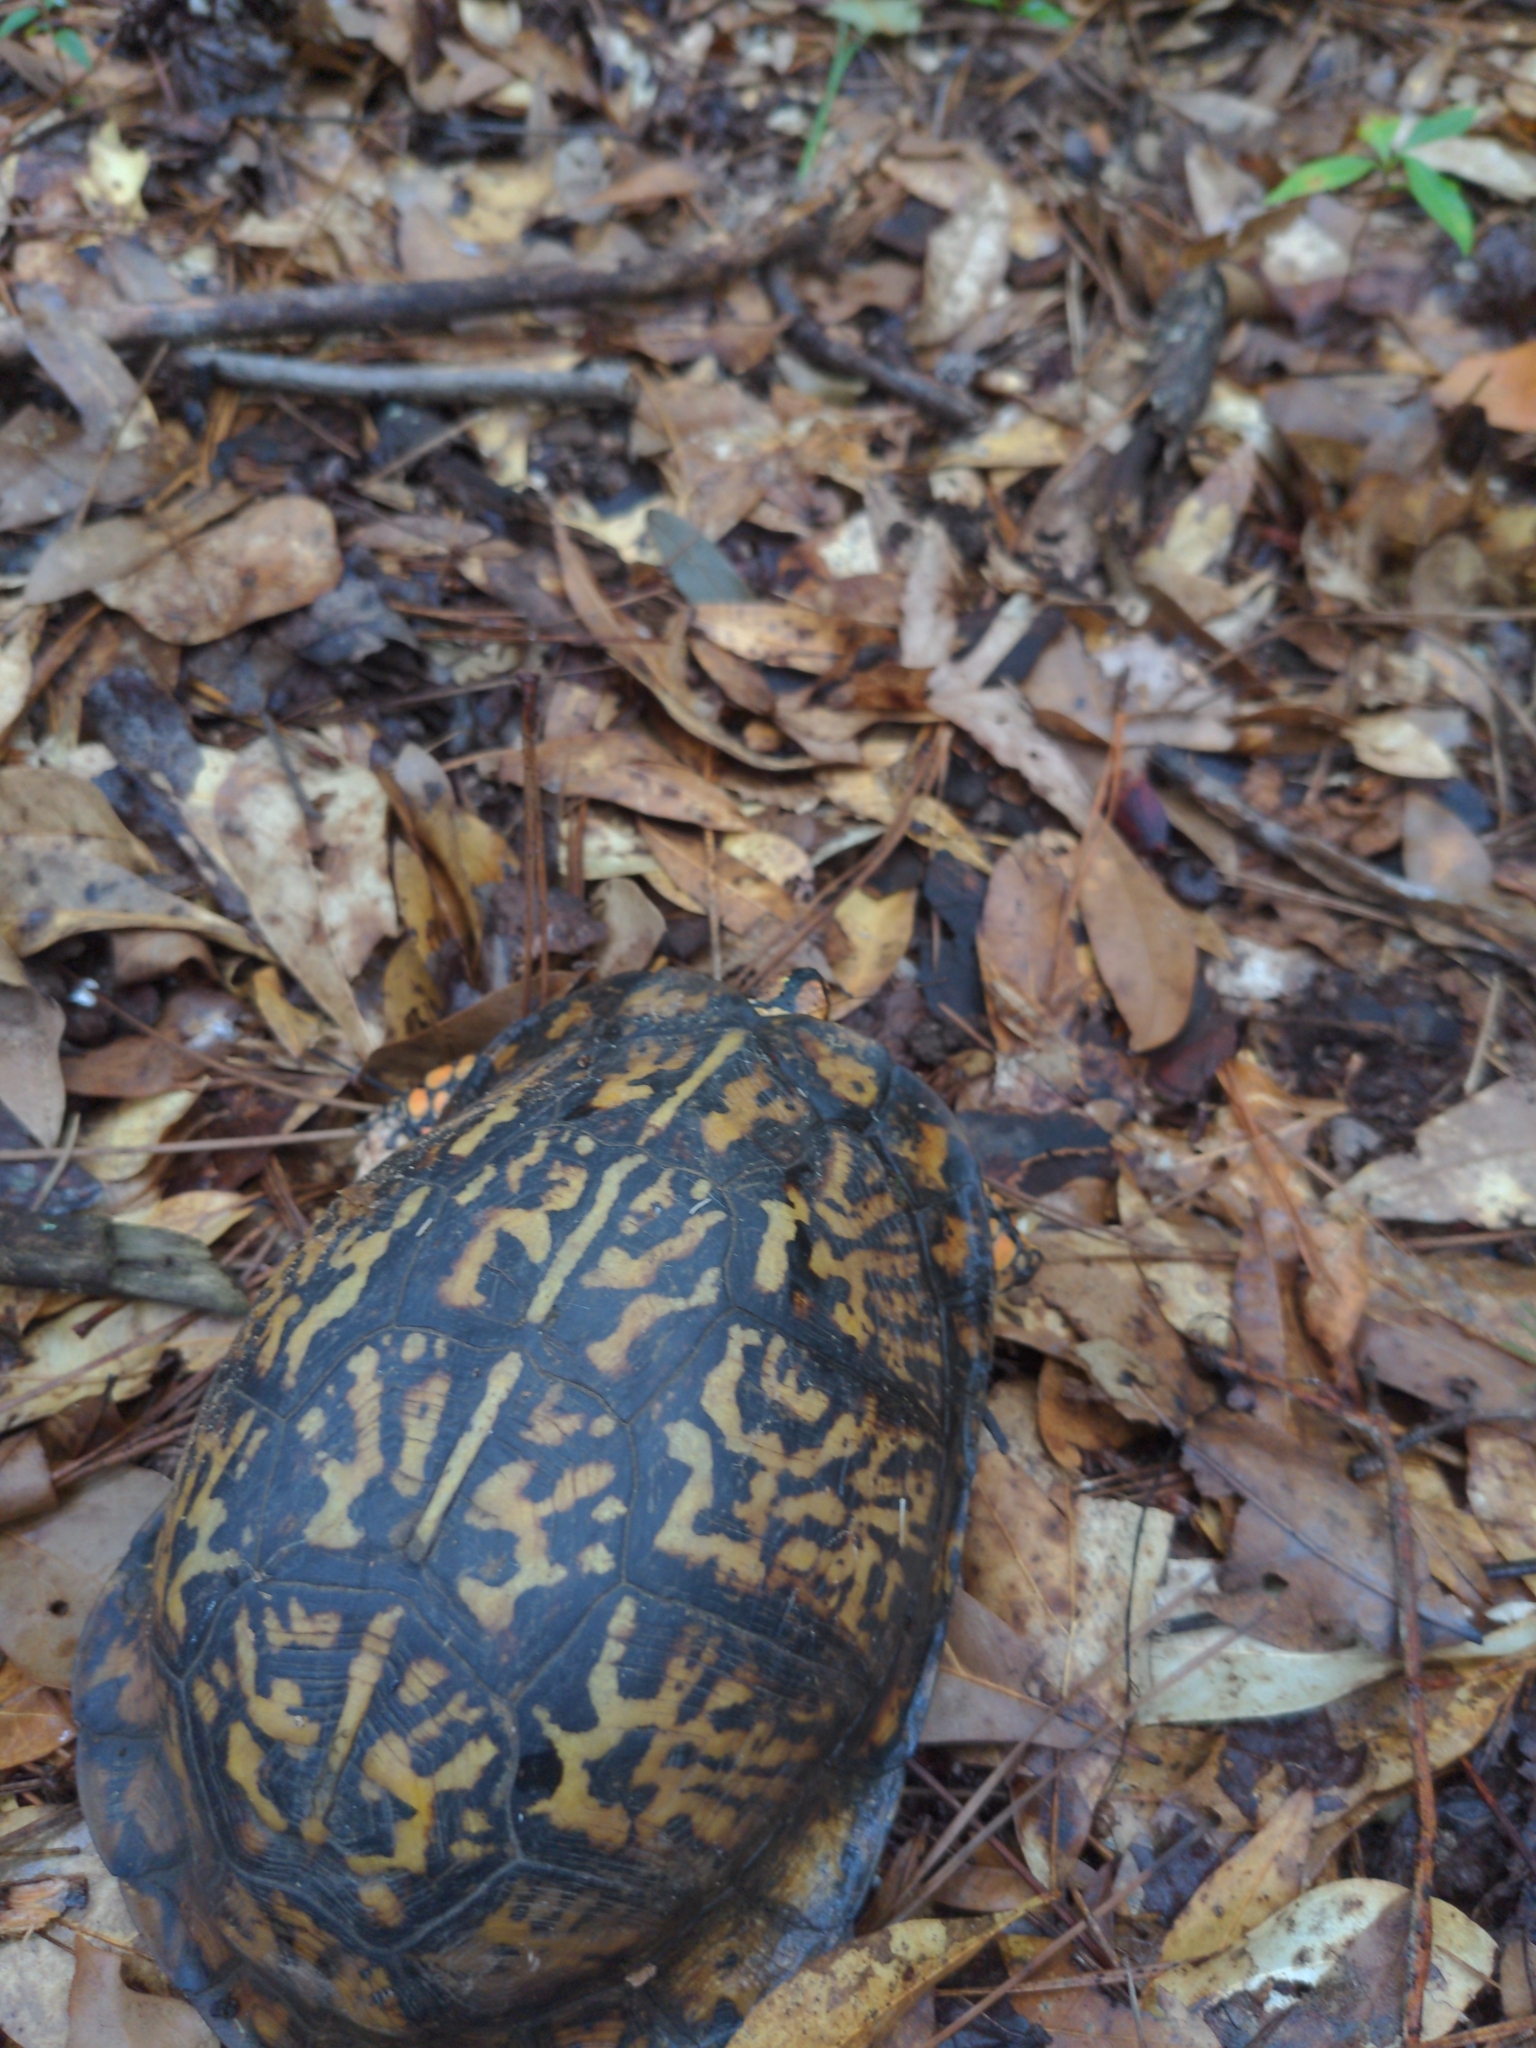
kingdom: Animalia
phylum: Chordata
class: Testudines
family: Emydidae
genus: Terrapene
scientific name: Terrapene carolina
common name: Common box turtle
